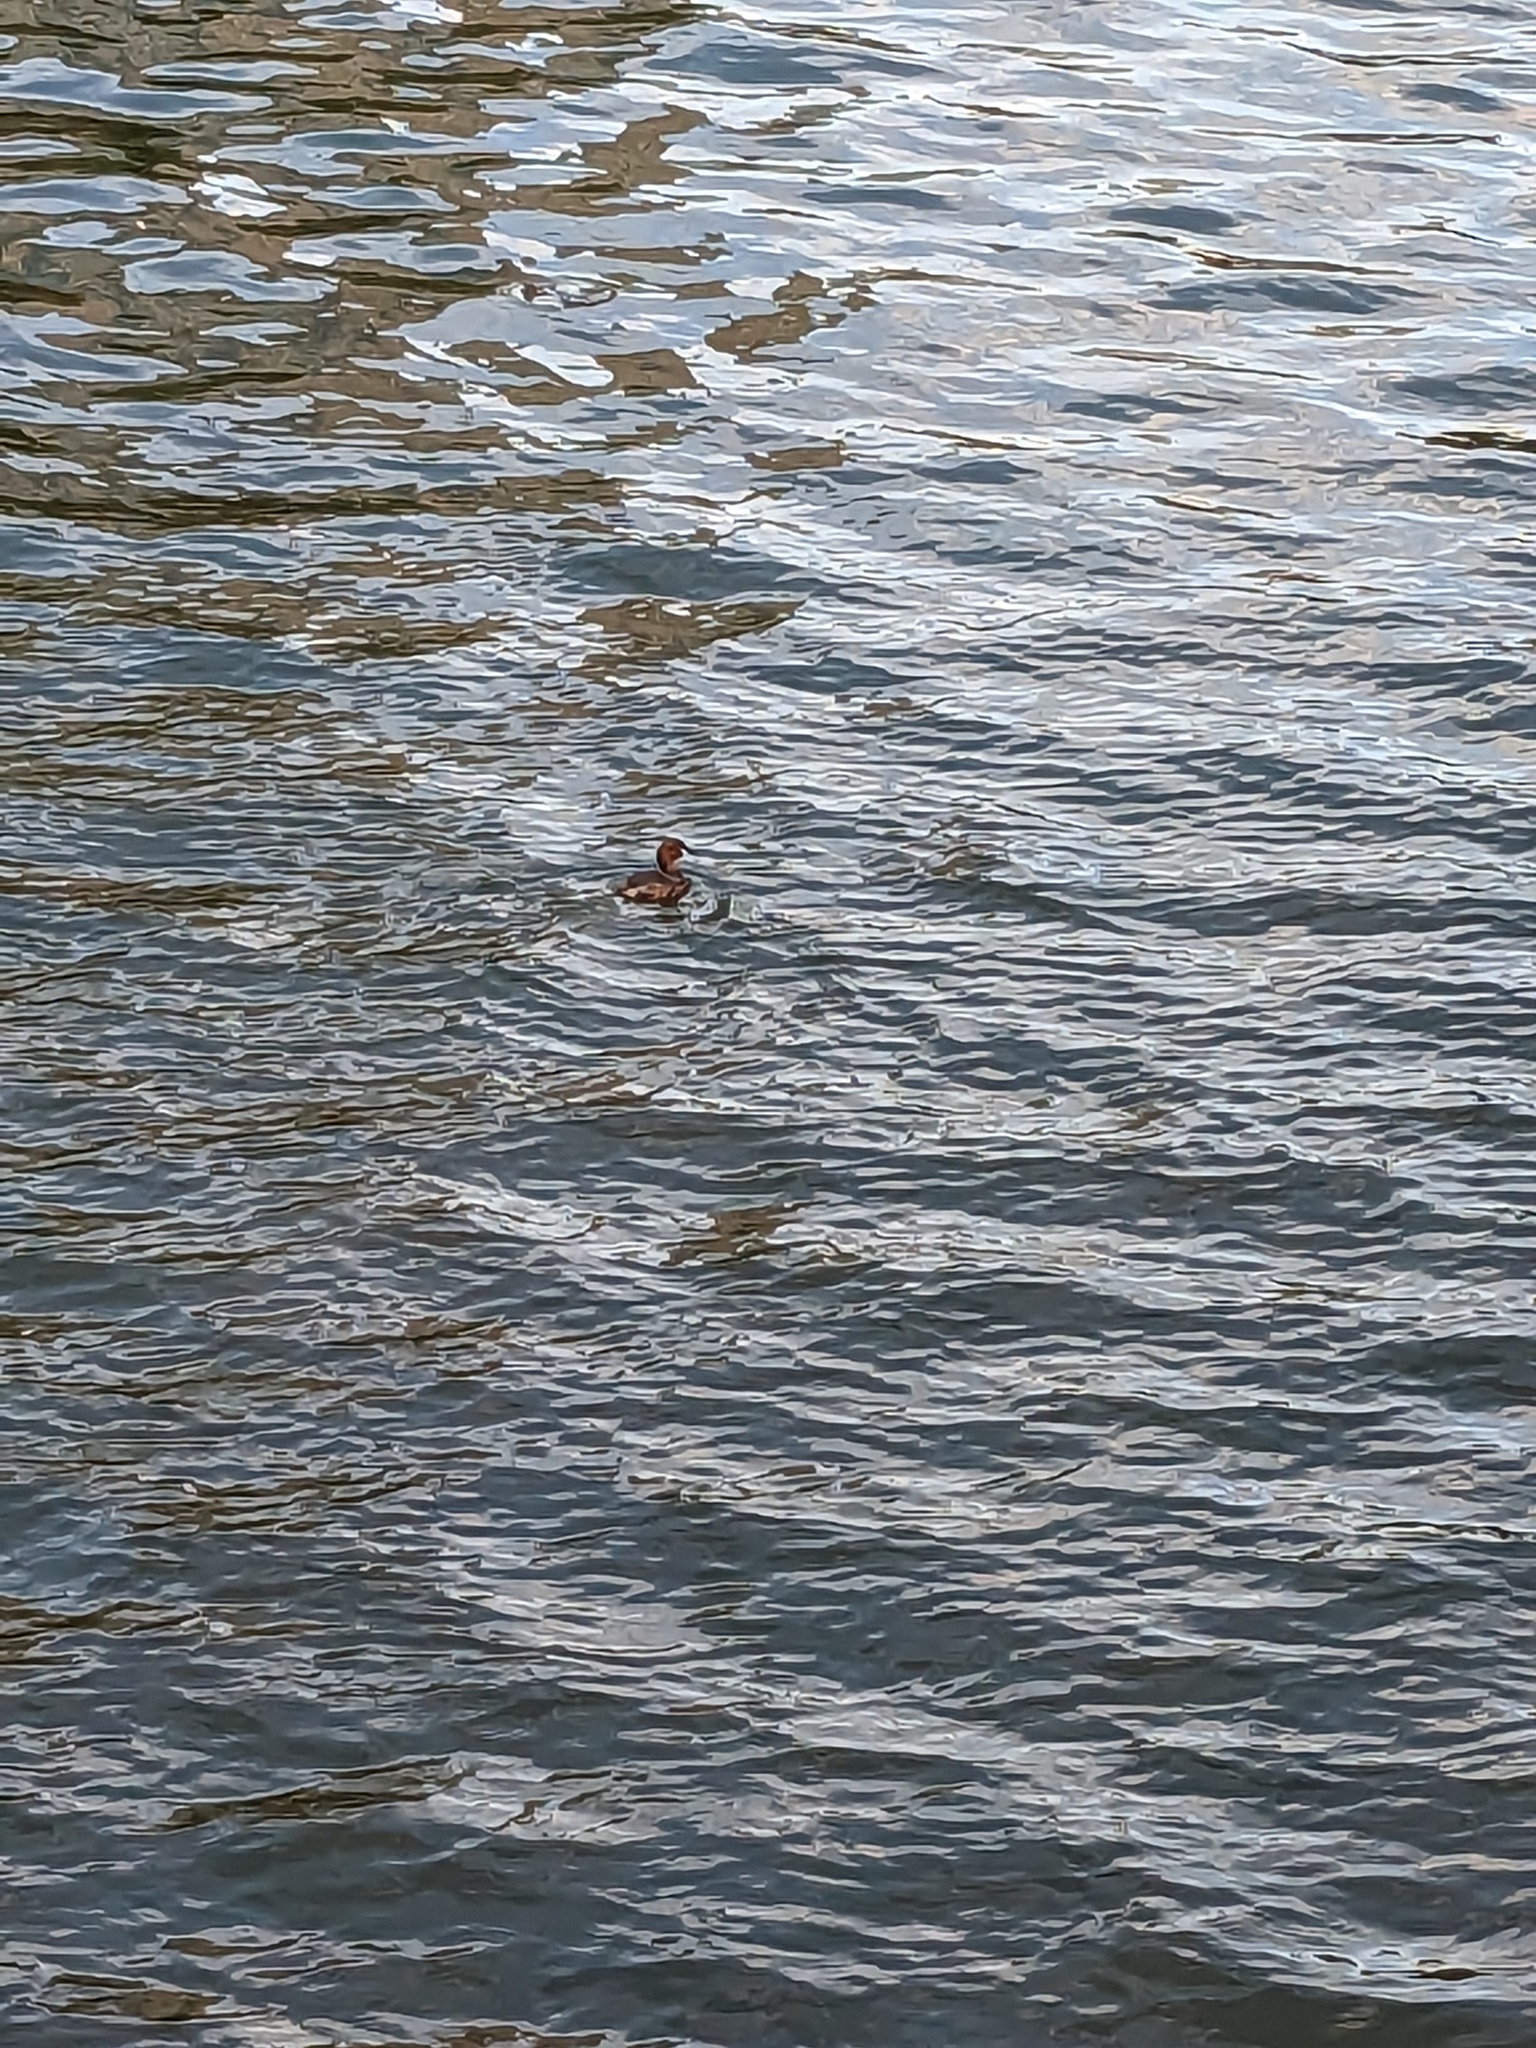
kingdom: Animalia
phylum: Chordata
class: Aves
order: Podicipediformes
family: Podicipedidae
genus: Tachybaptus
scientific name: Tachybaptus ruficollis
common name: Little grebe
